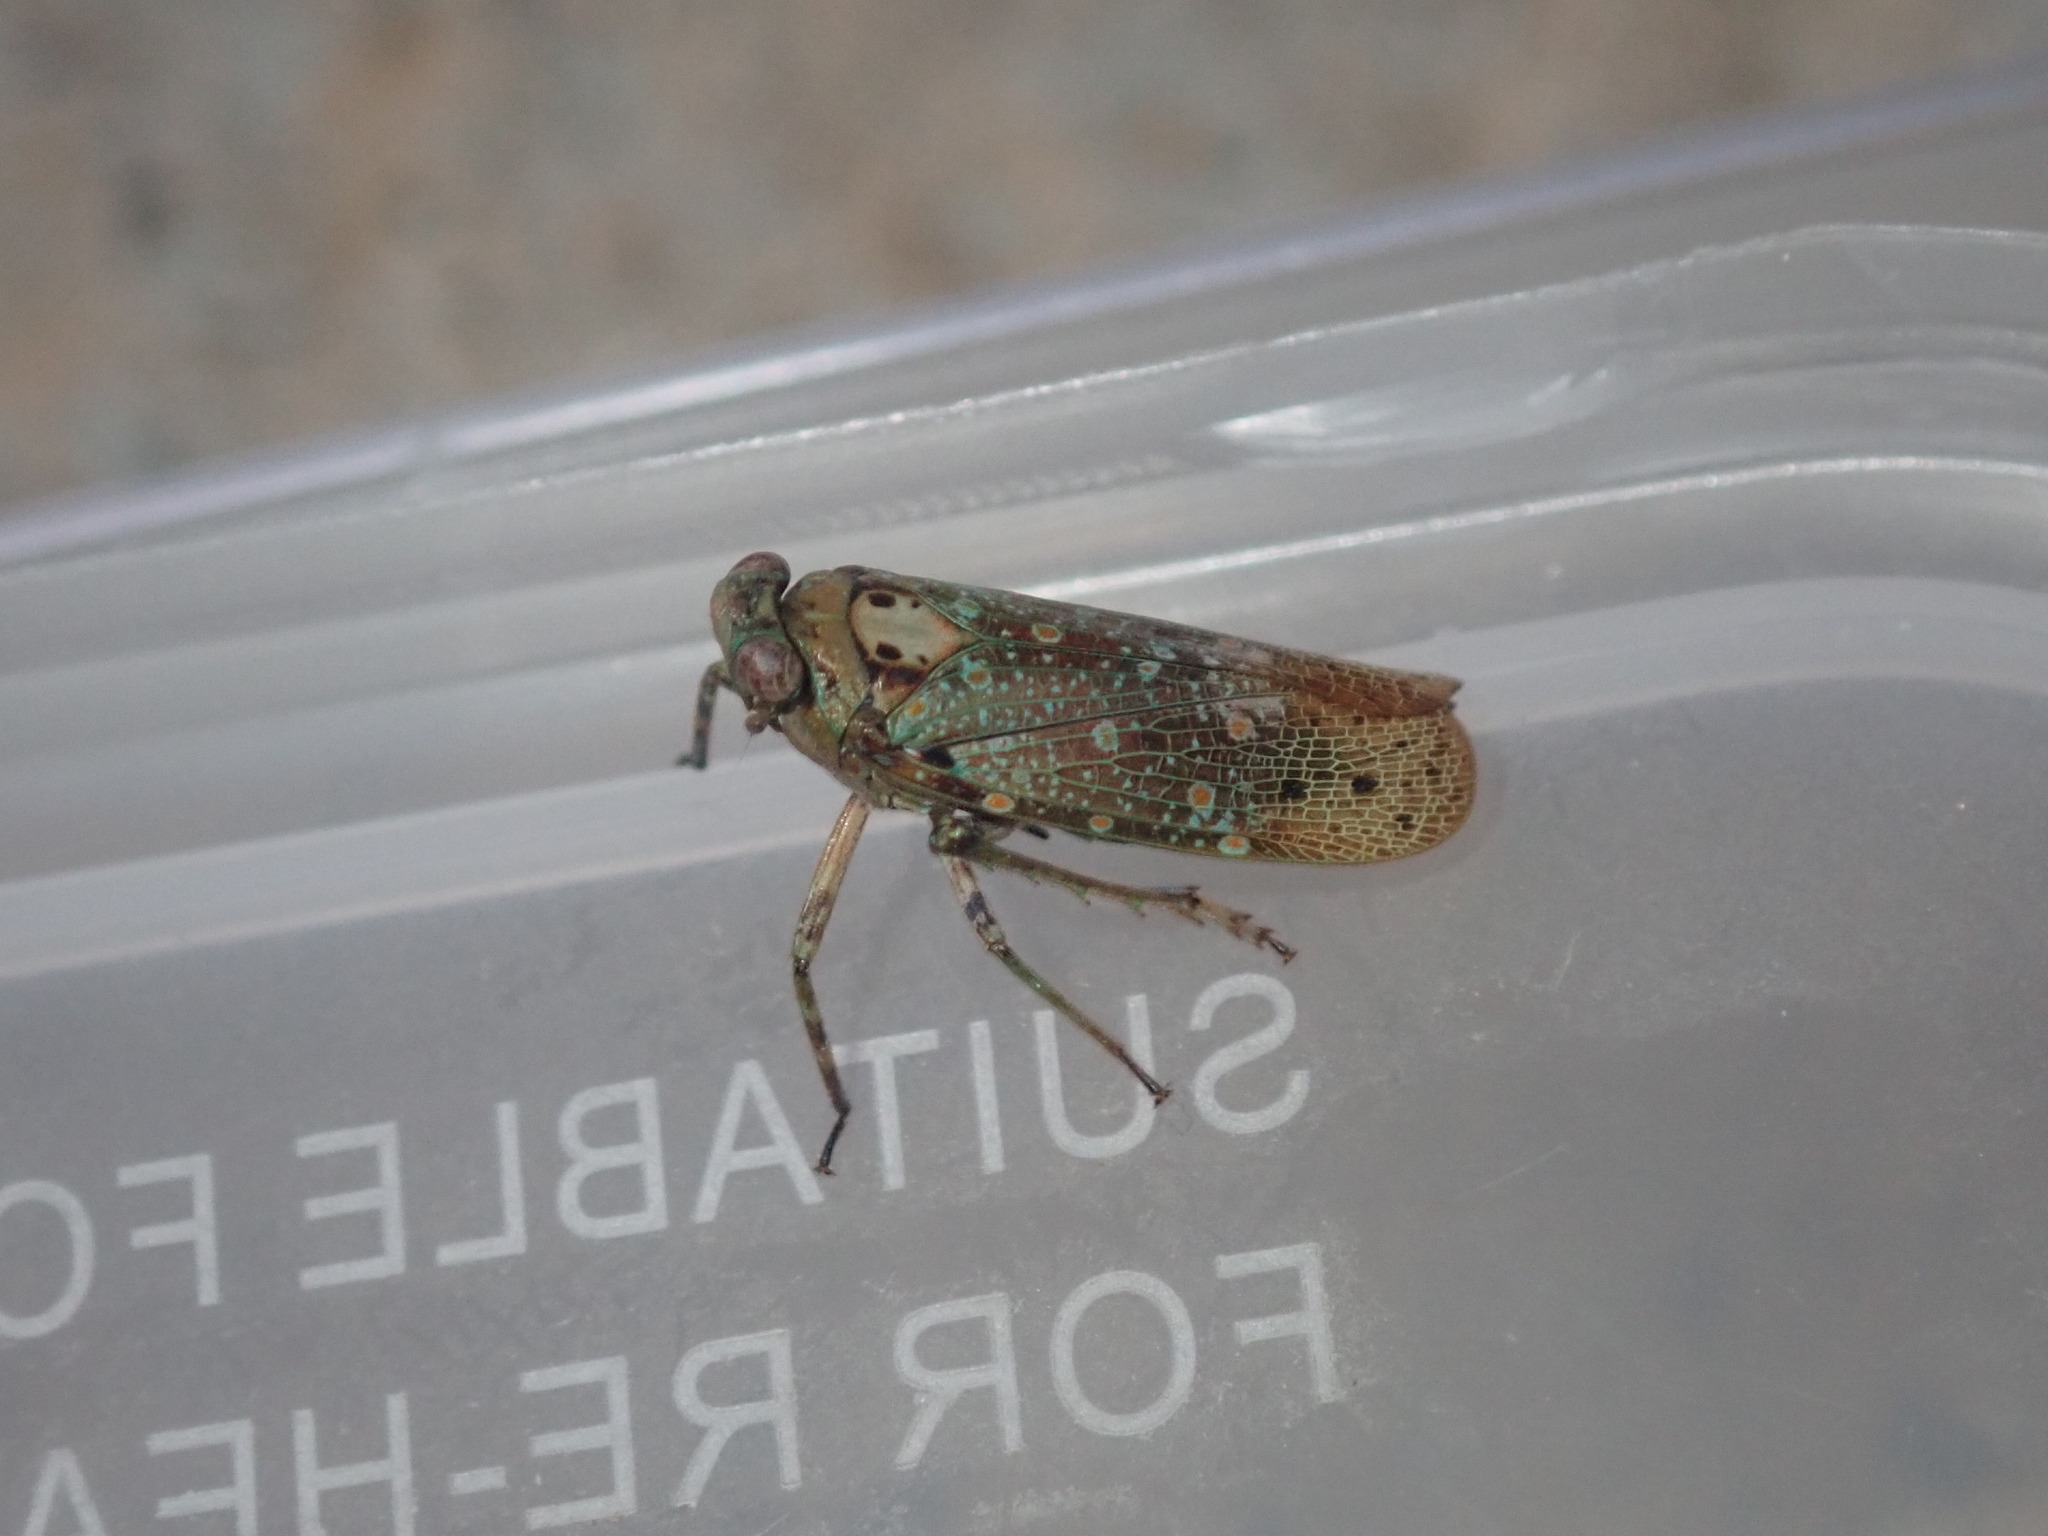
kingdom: Animalia
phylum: Arthropoda
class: Insecta
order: Hemiptera
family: Fulgoridae
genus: Desudaba
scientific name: Desudaba aulica
